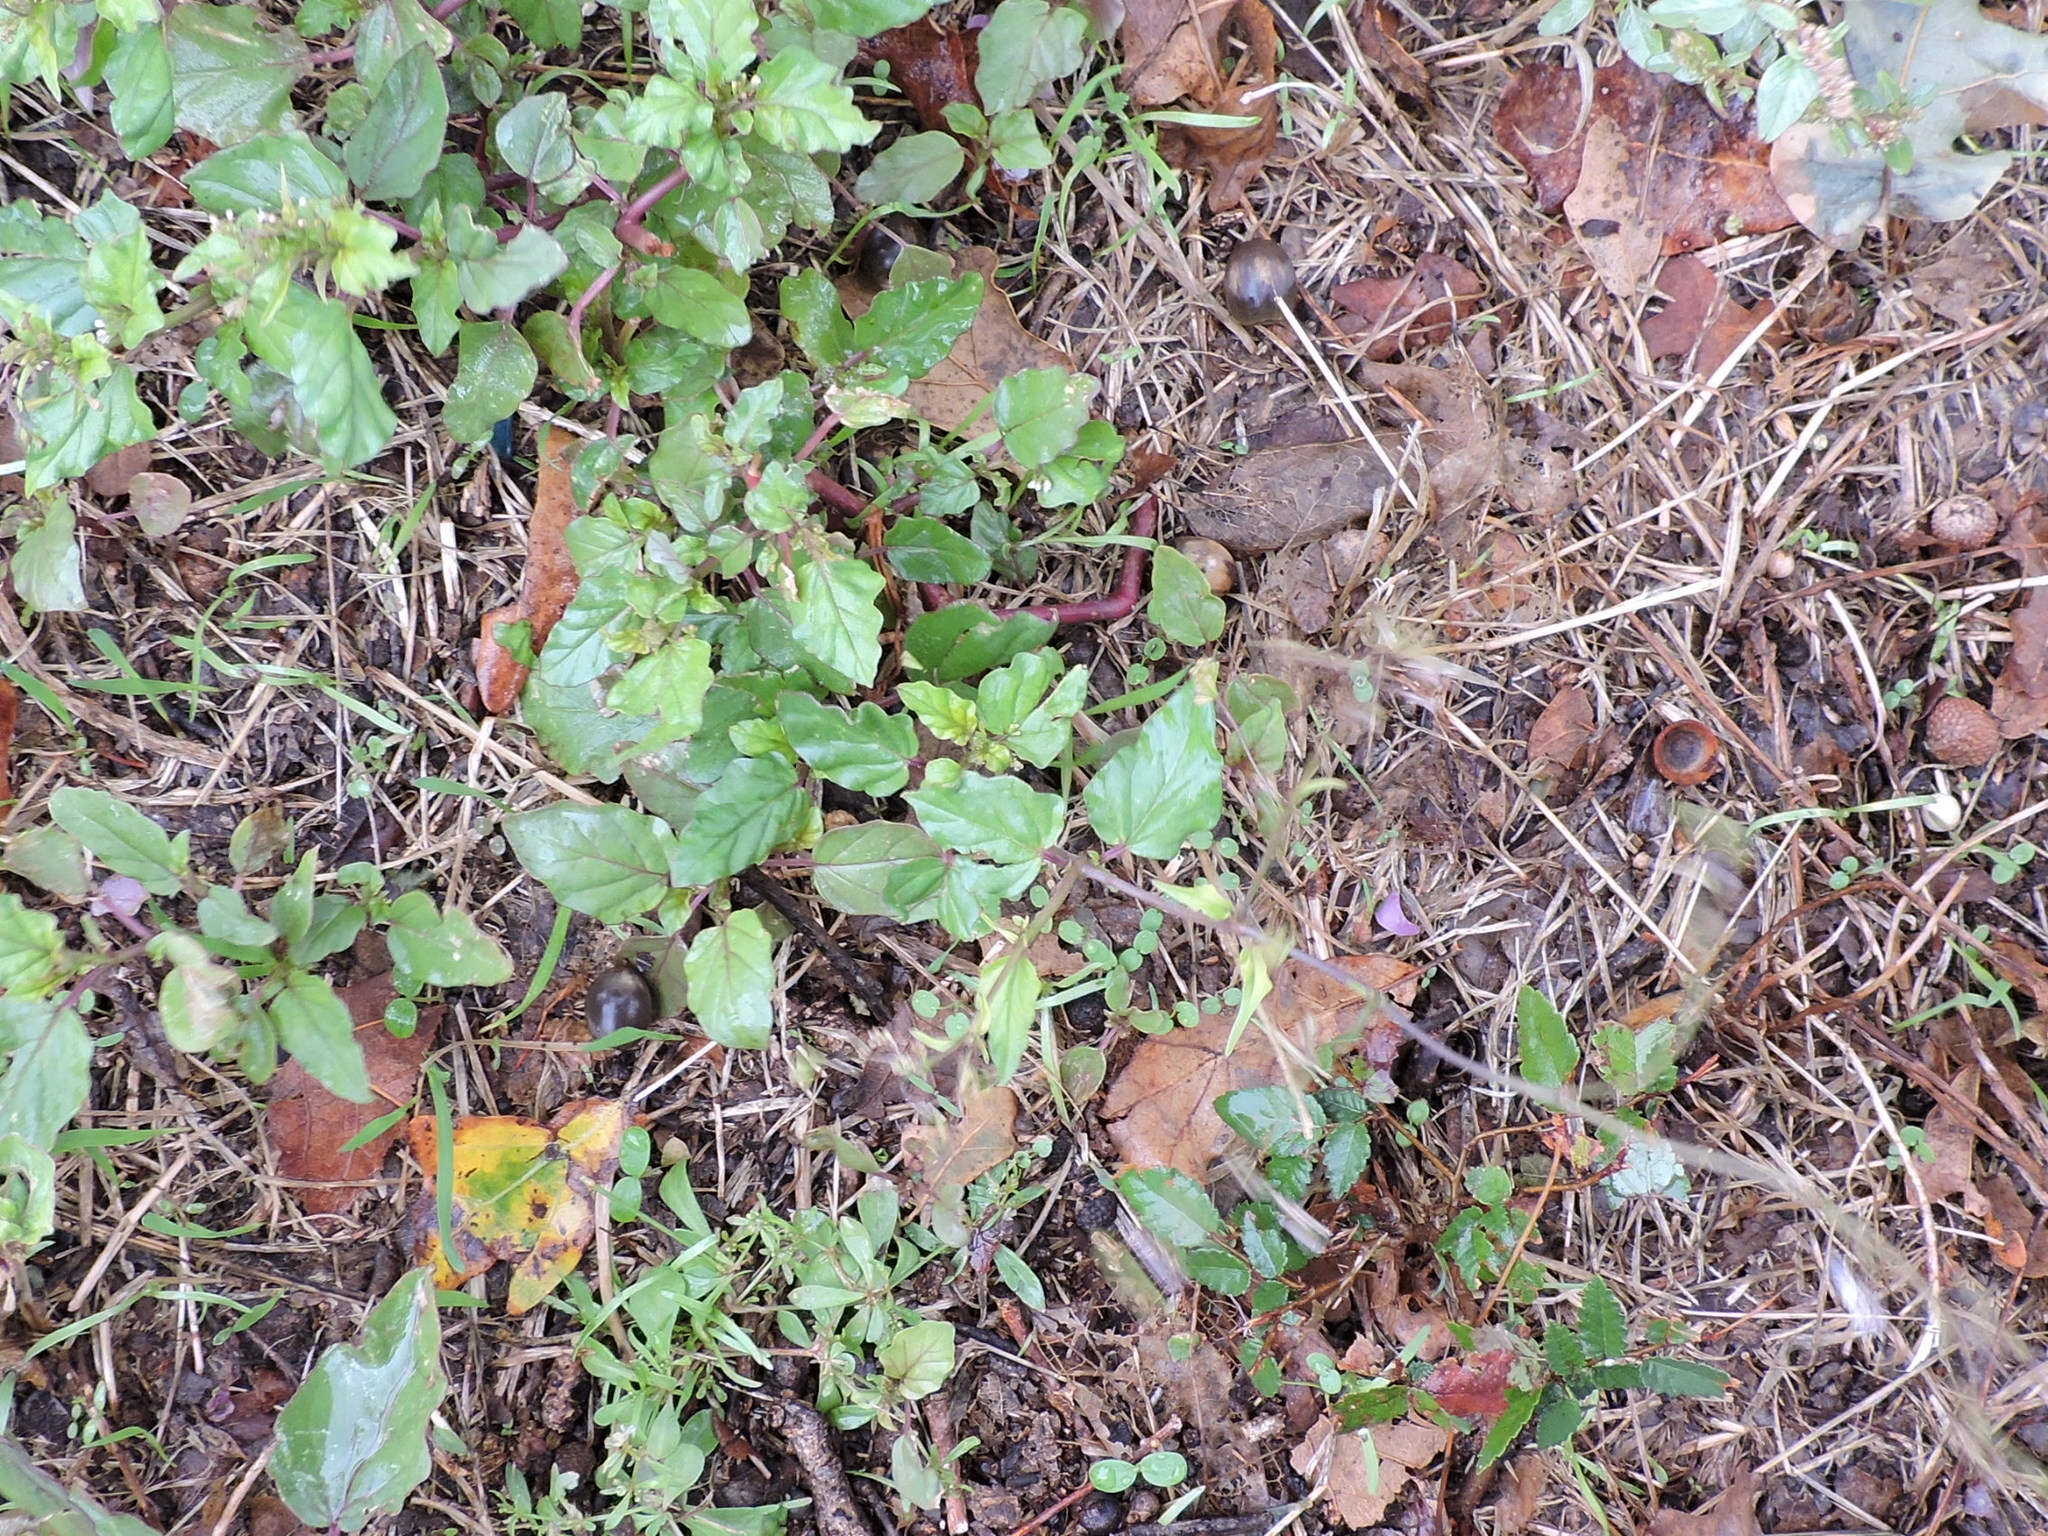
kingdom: Plantae
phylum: Tracheophyta
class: Magnoliopsida
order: Caryophyllales
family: Nyctaginaceae
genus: Boerhavia
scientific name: Boerhavia erecta
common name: Erect spiderling
